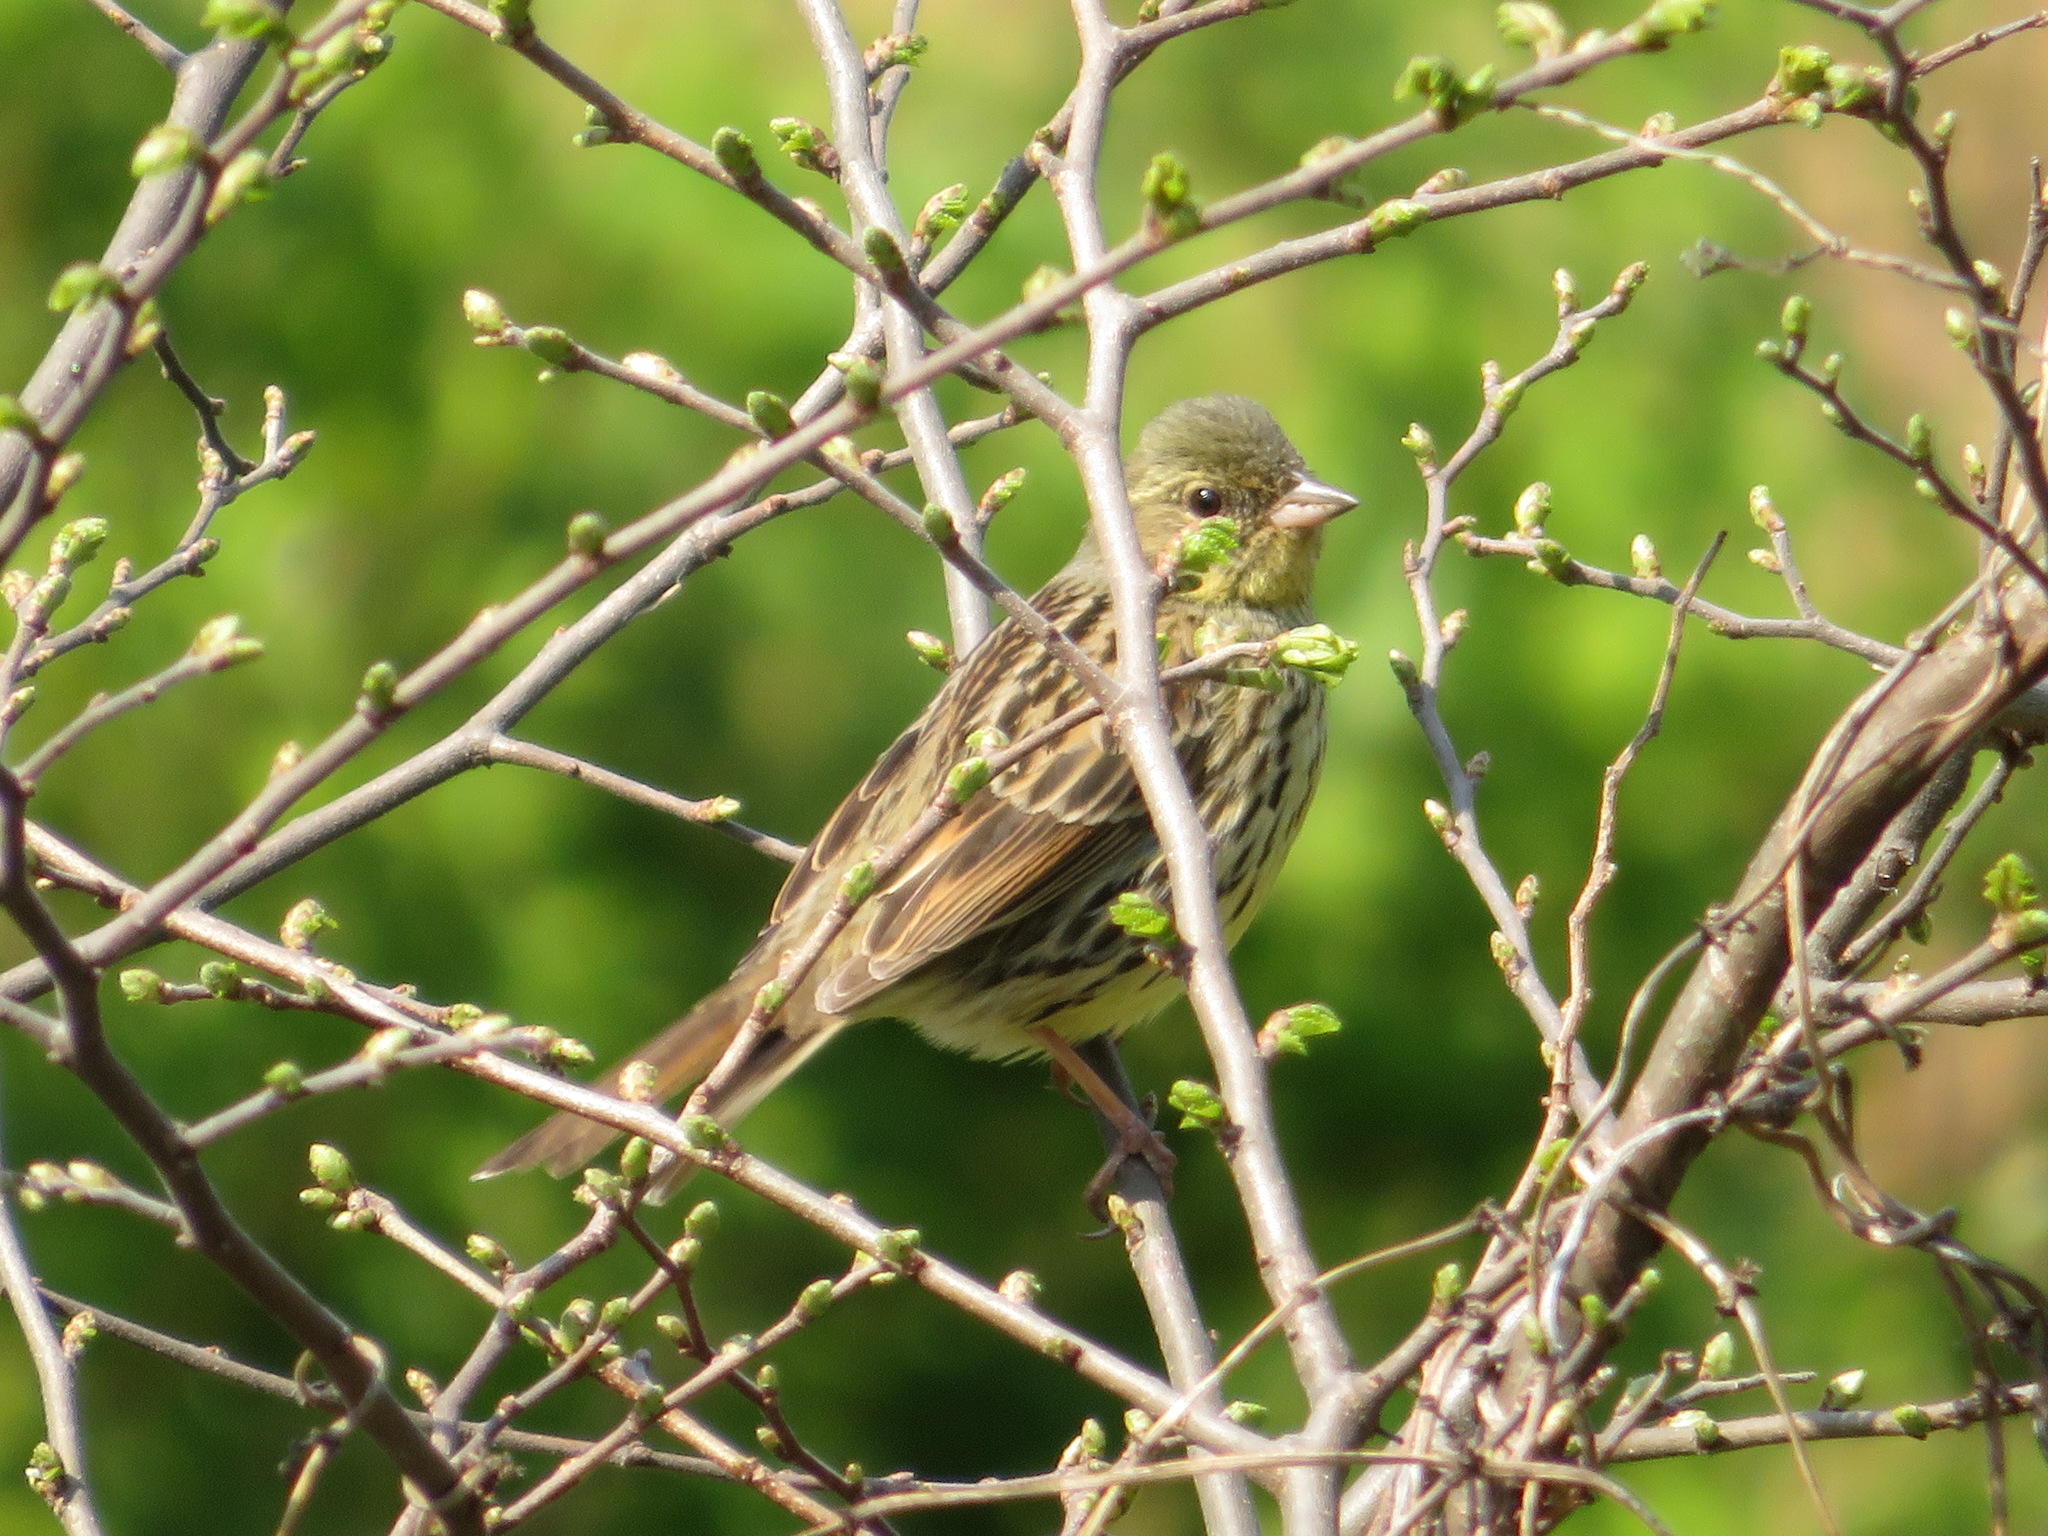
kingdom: Animalia
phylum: Chordata
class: Aves
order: Passeriformes
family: Emberizidae
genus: Emberiza
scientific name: Emberiza personata
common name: Masked bunting
